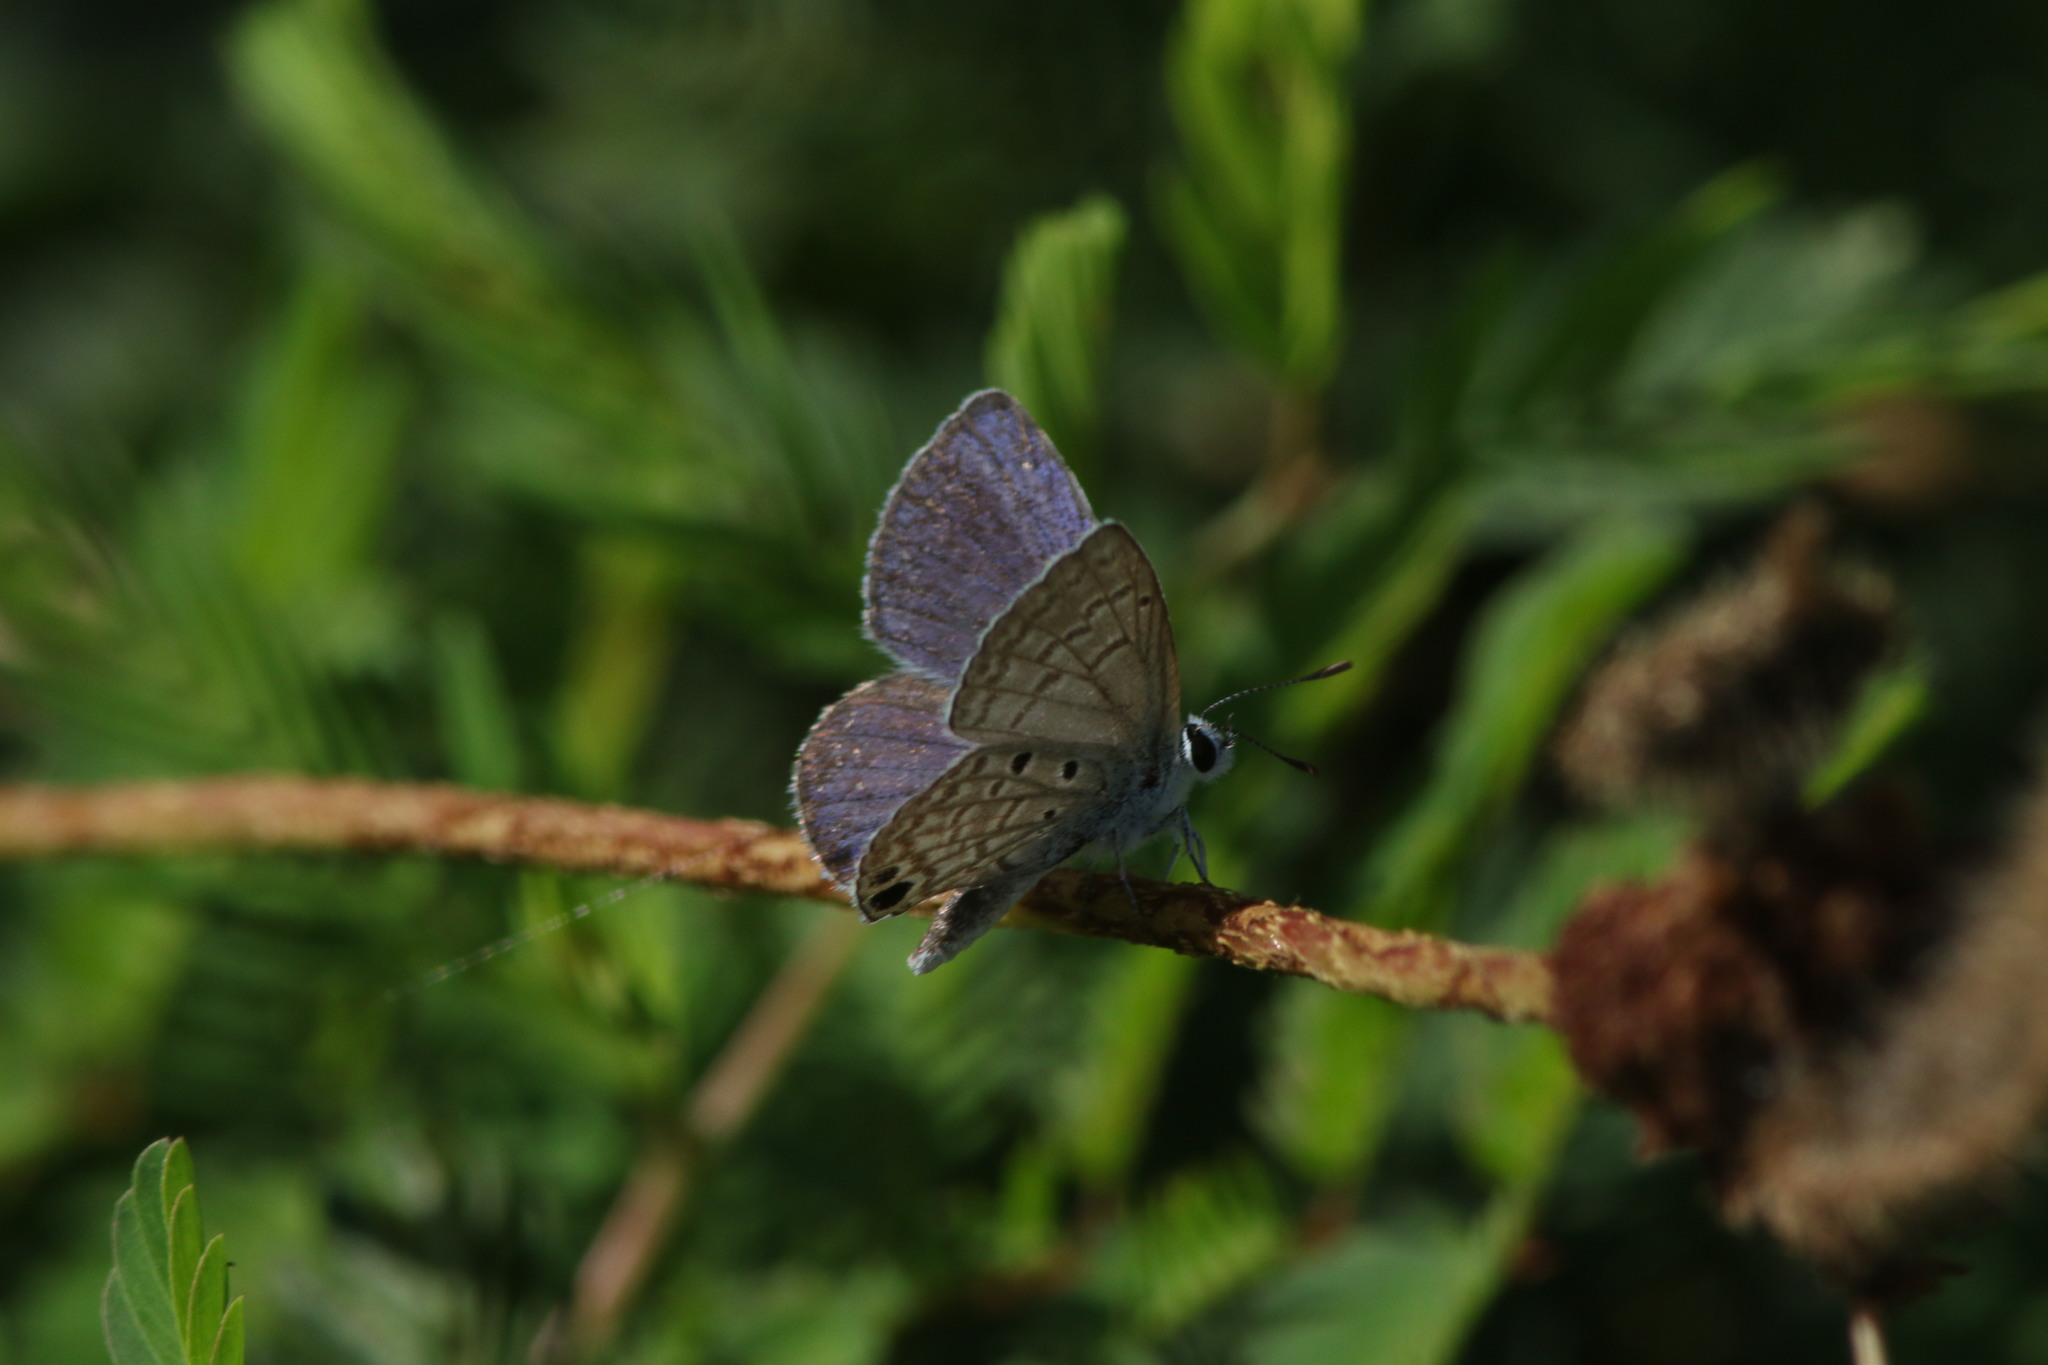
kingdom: Animalia
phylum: Arthropoda
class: Insecta
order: Lepidoptera
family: Lycaenidae
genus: Hemiargus
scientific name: Hemiargus ceraunus
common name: Ceraunus blue
